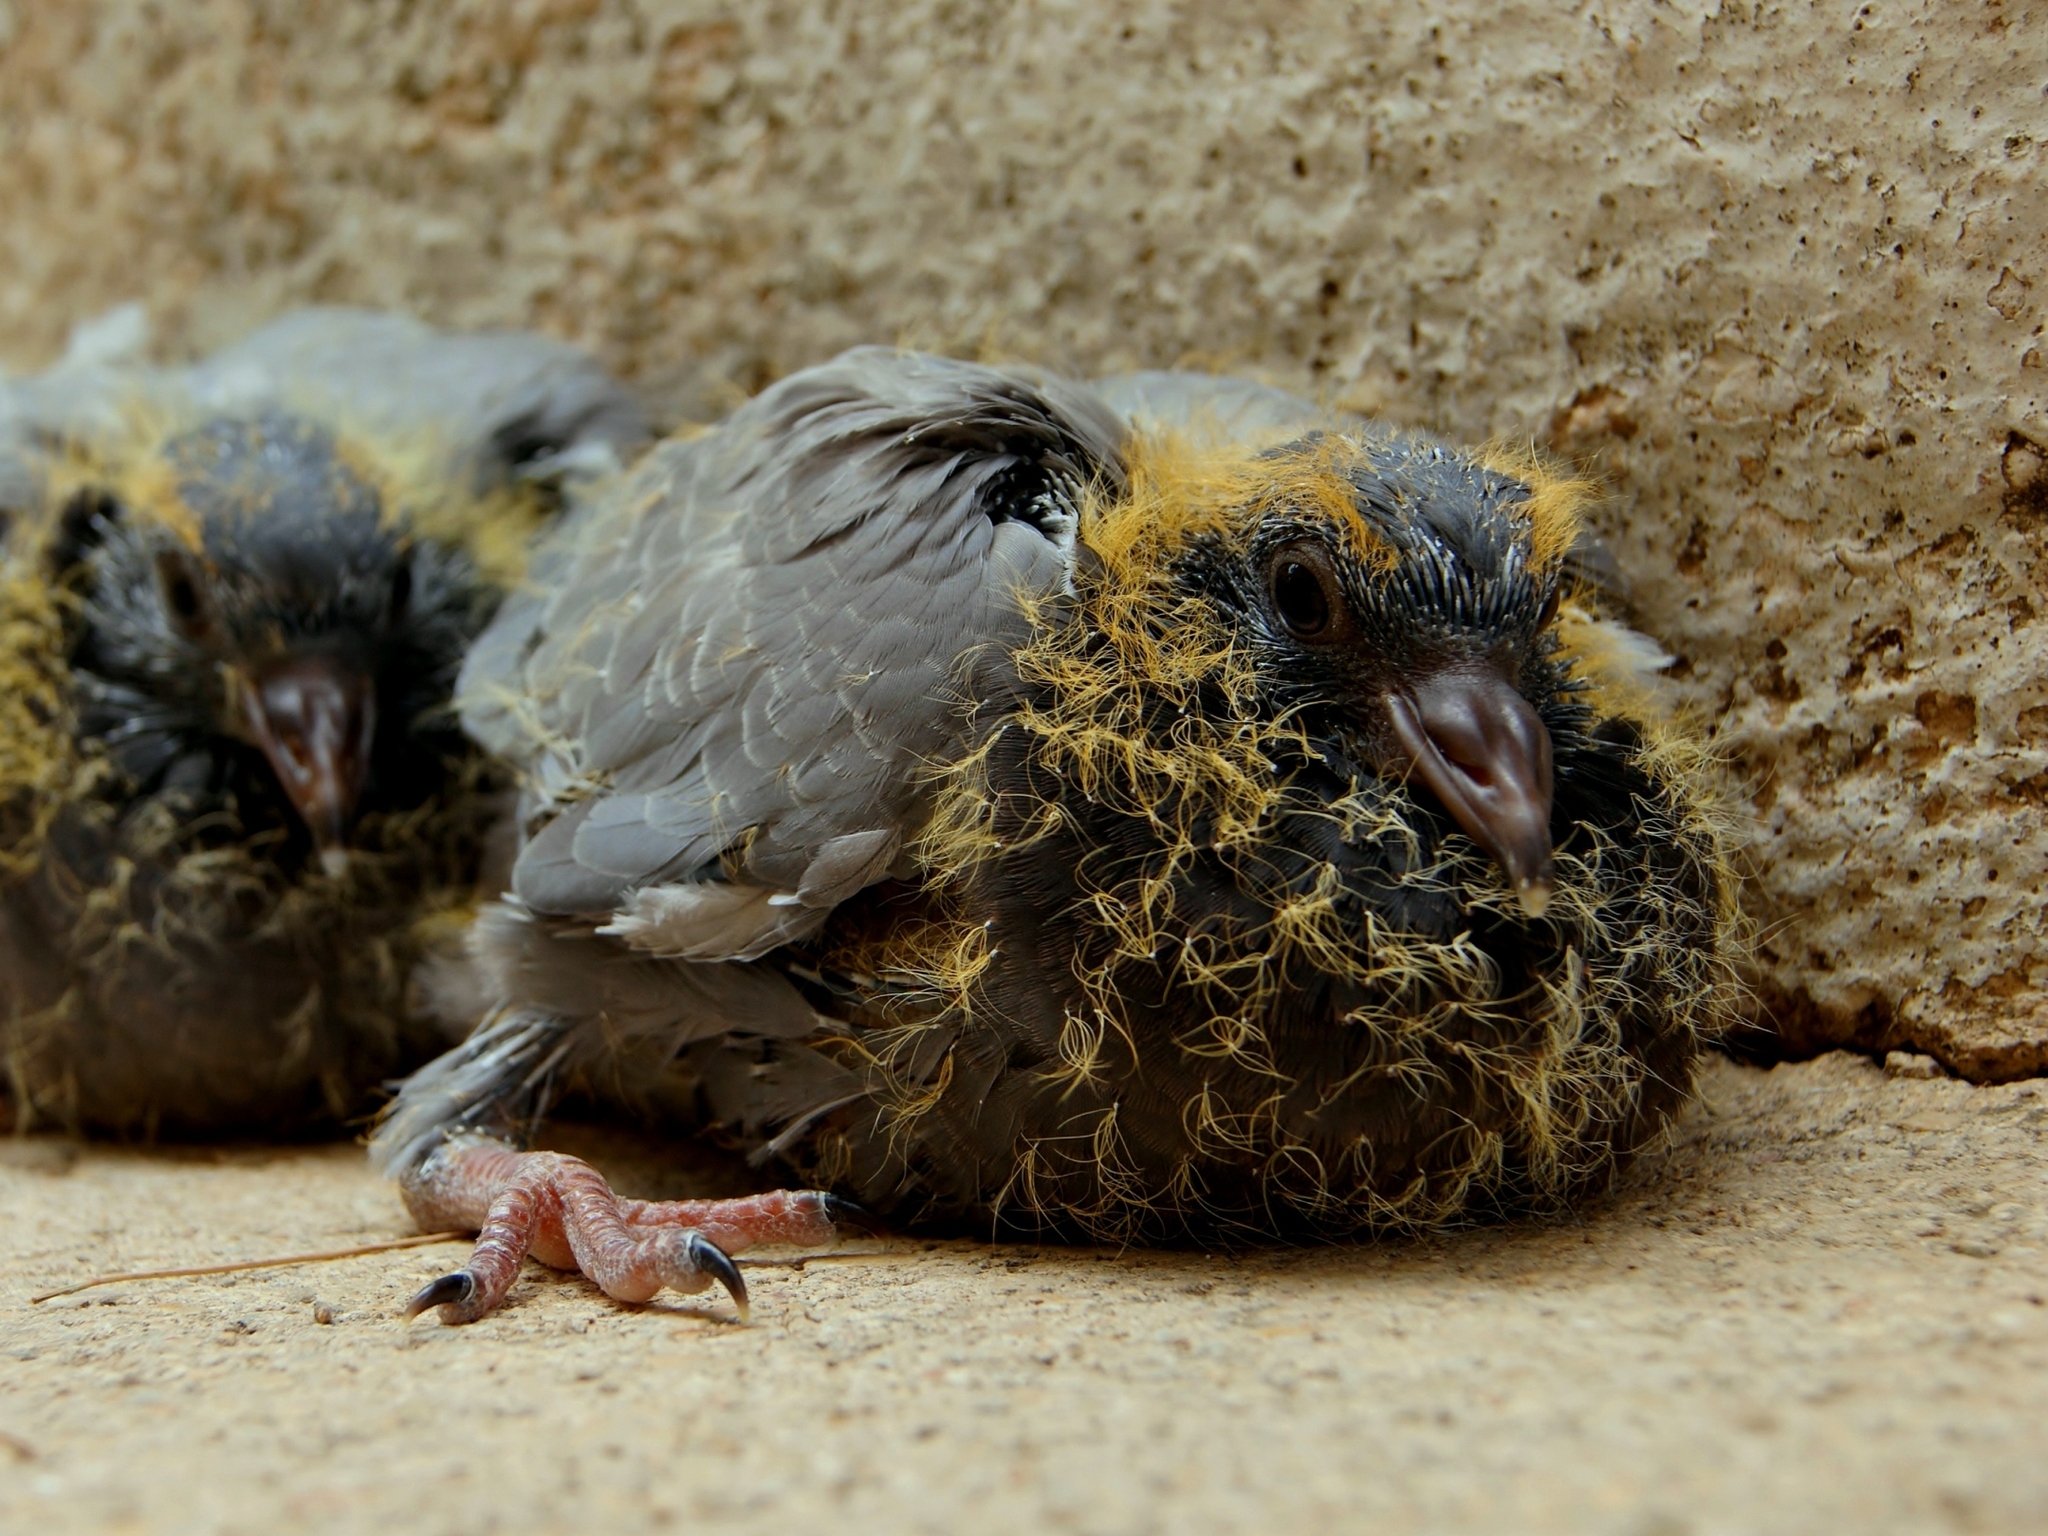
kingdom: Animalia
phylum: Chordata
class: Aves
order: Columbiformes
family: Columbidae
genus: Columba
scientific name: Columba livia
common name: Rock pigeon
